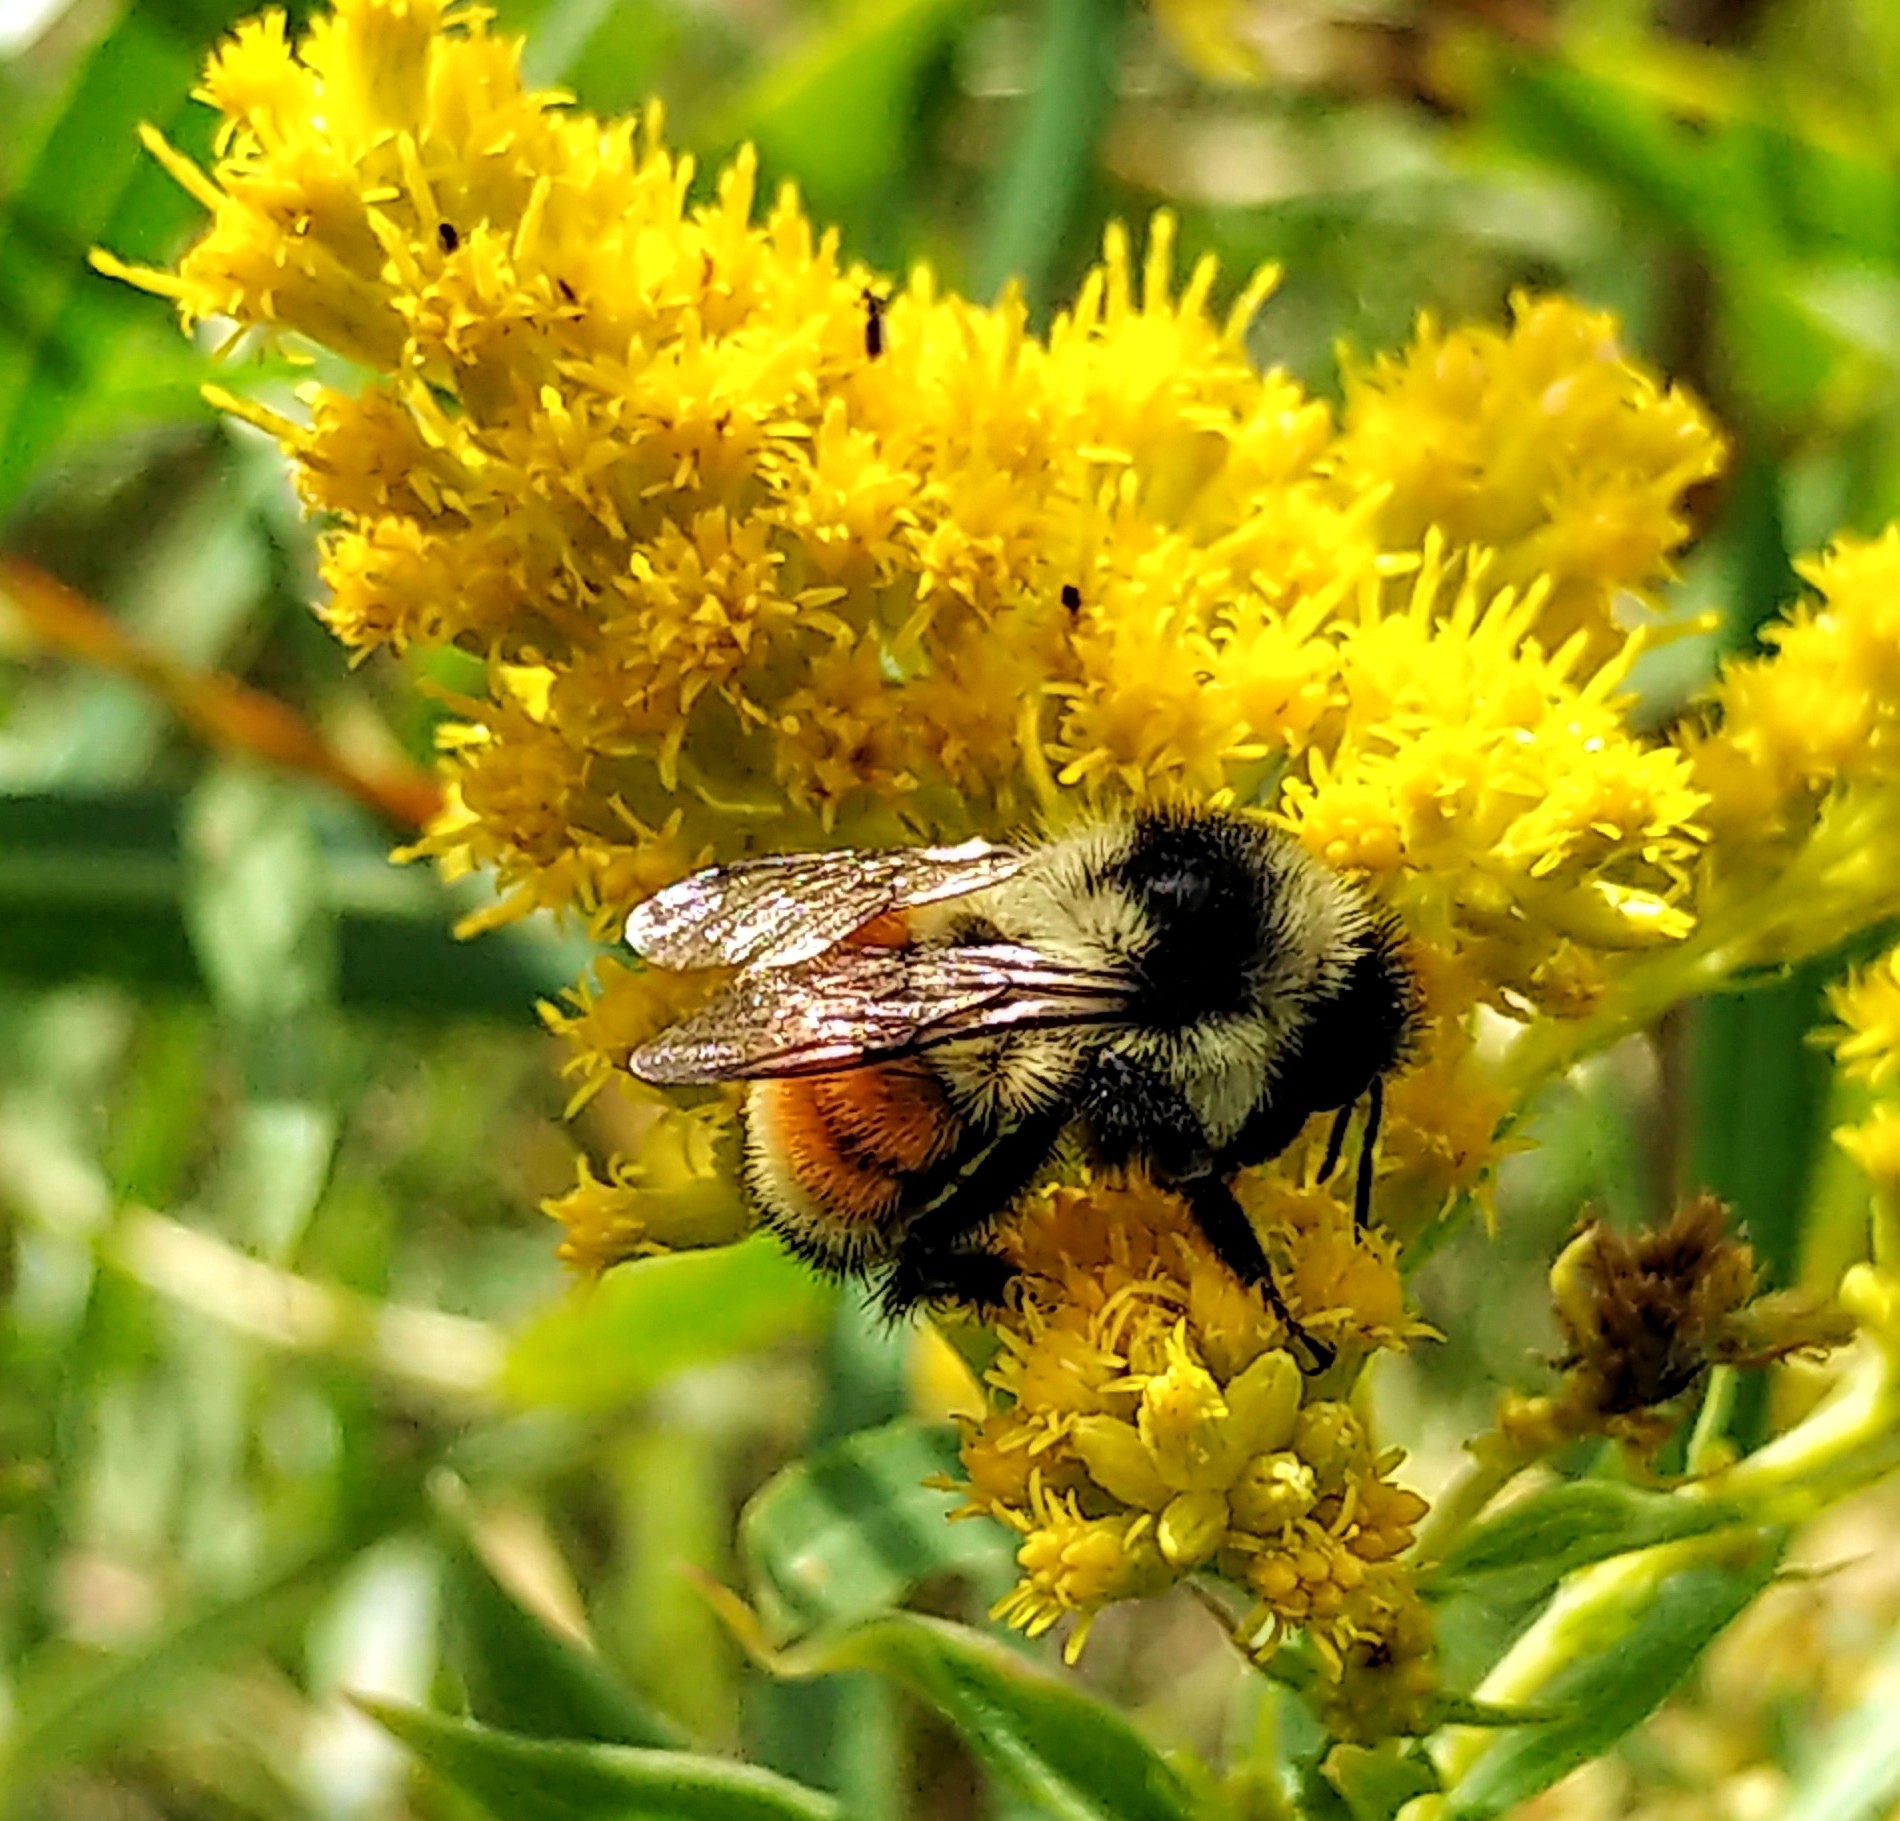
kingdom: Animalia
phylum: Arthropoda
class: Insecta
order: Hymenoptera
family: Apidae
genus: Bombus
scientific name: Bombus ternarius
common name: Tri-colored bumble bee
